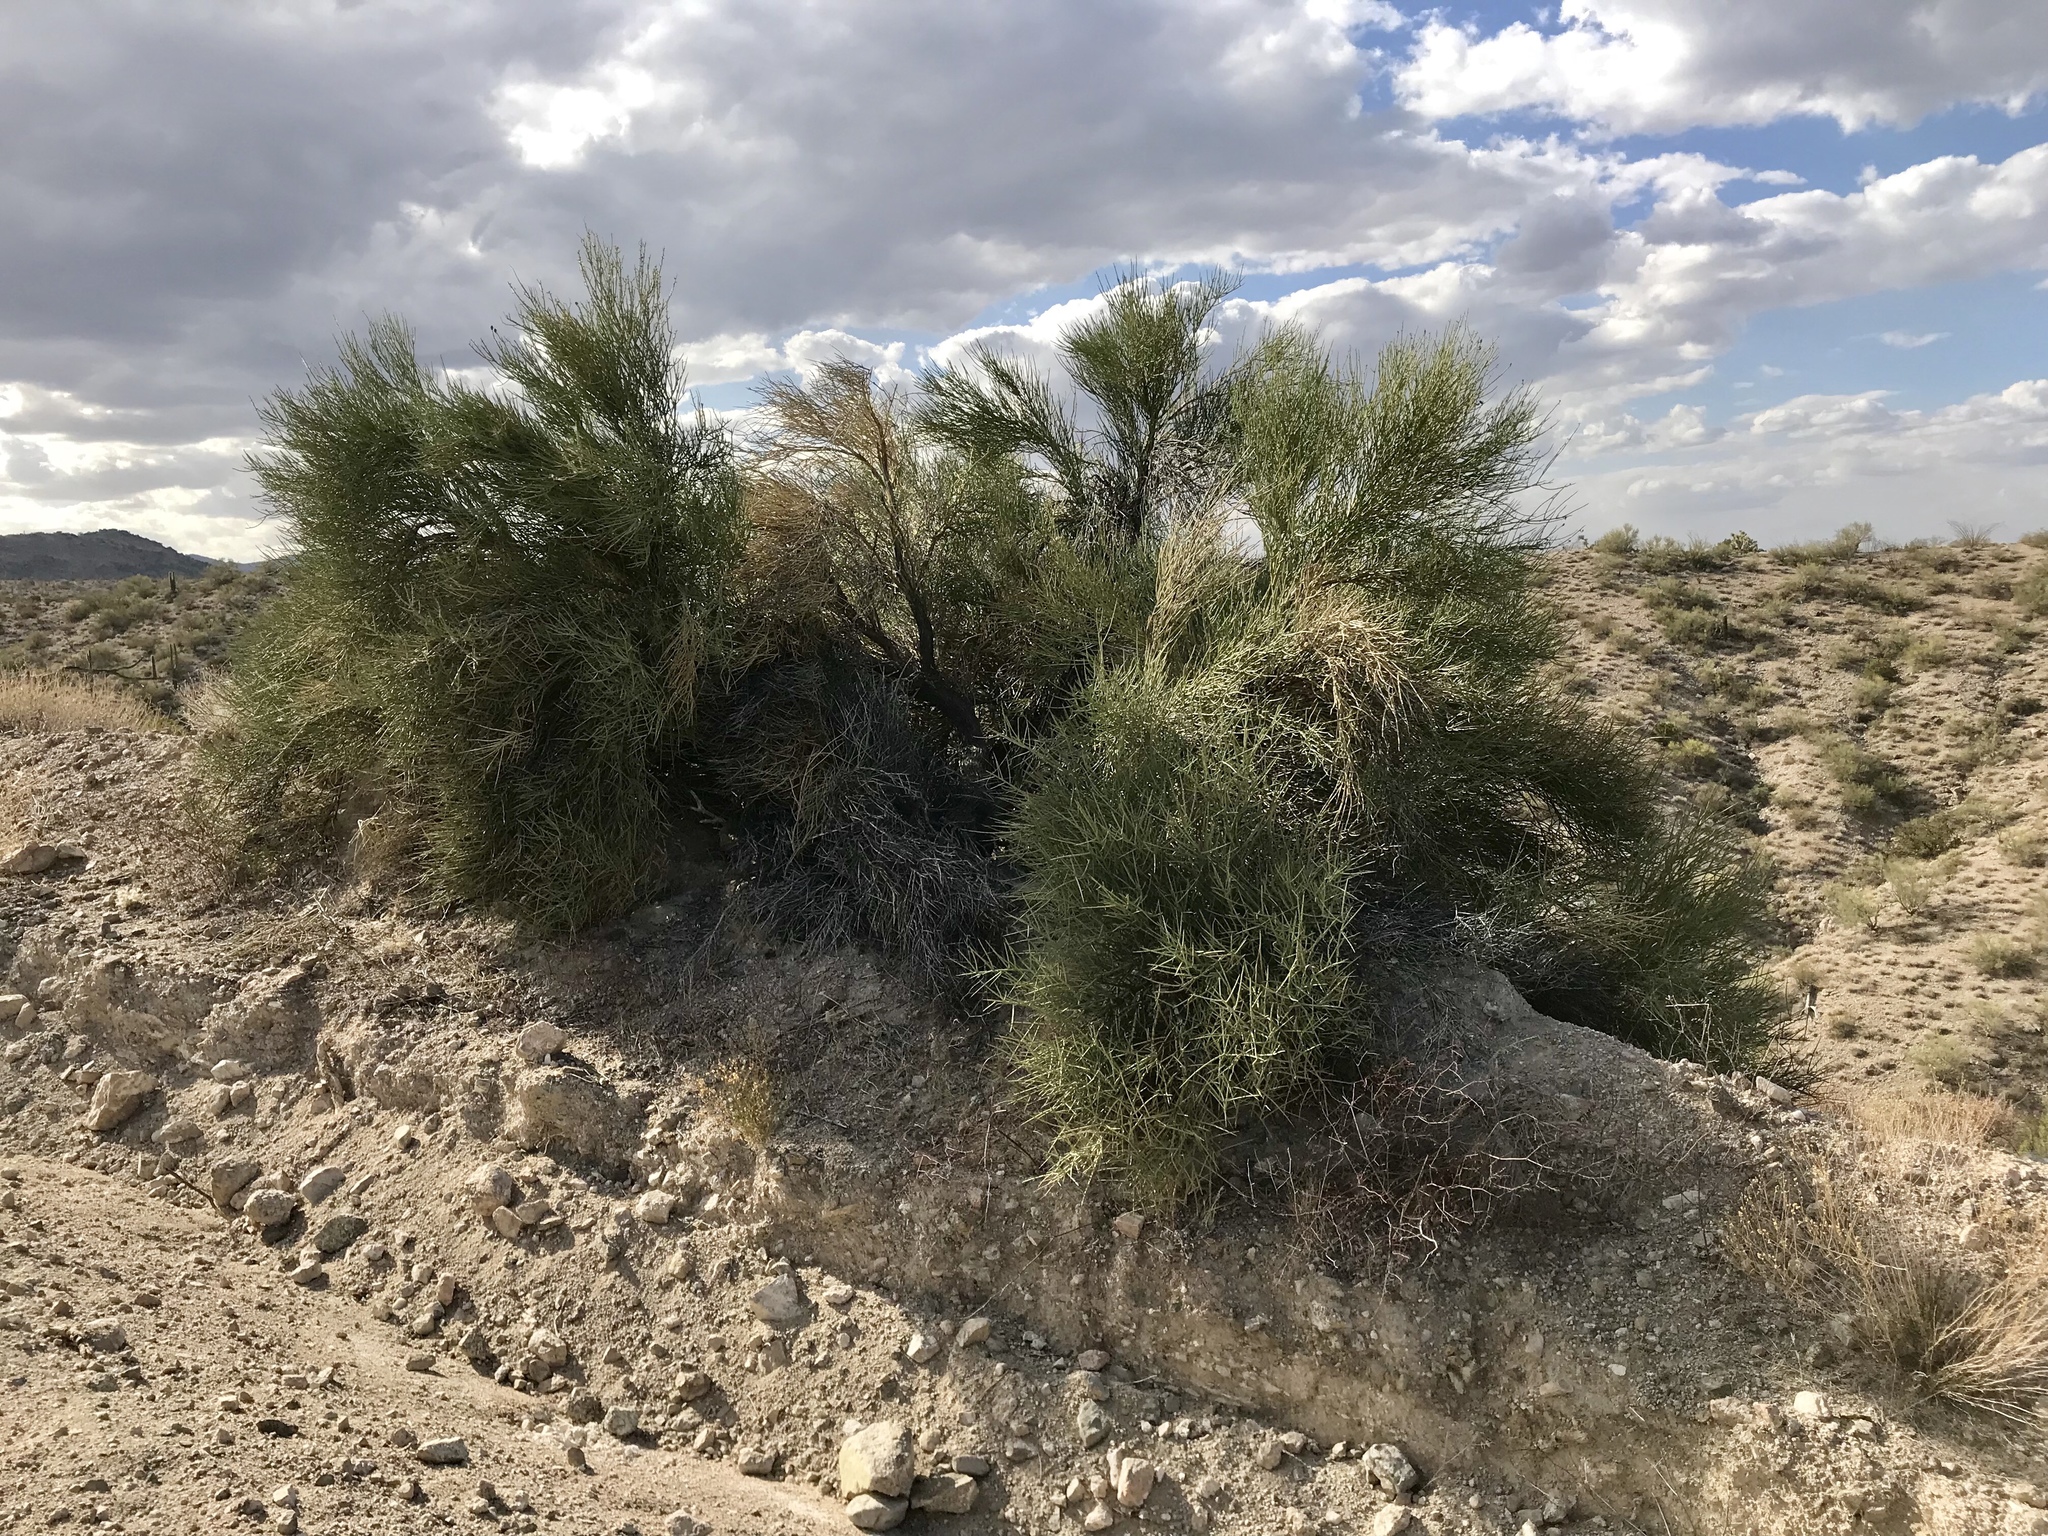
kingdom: Plantae
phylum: Tracheophyta
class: Magnoliopsida
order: Celastrales
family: Celastraceae
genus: Canotia
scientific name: Canotia holacantha
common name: Crucifixion thorns
